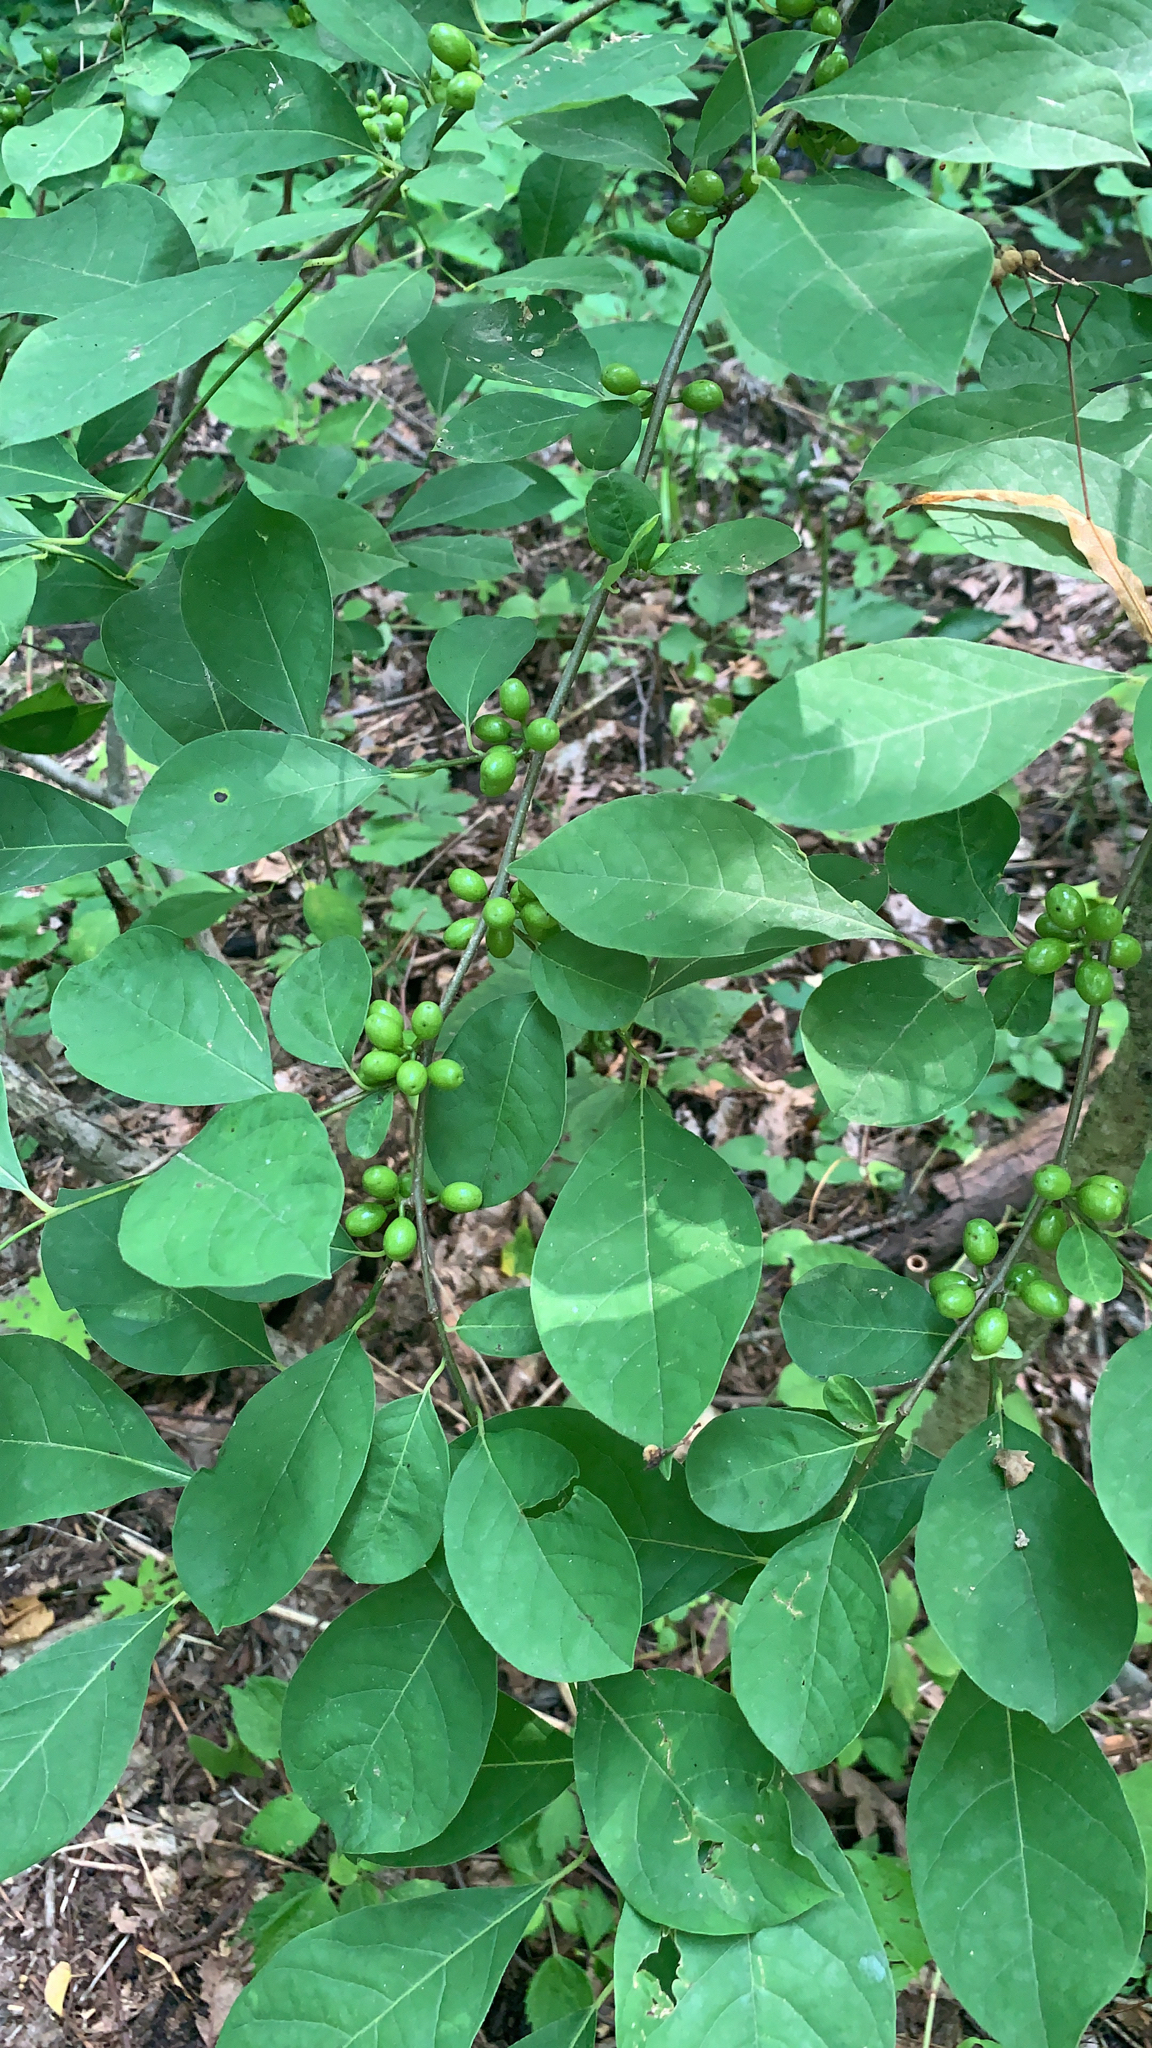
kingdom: Plantae
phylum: Tracheophyta
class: Magnoliopsida
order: Laurales
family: Lauraceae
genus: Lindera
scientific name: Lindera benzoin
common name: Spicebush
